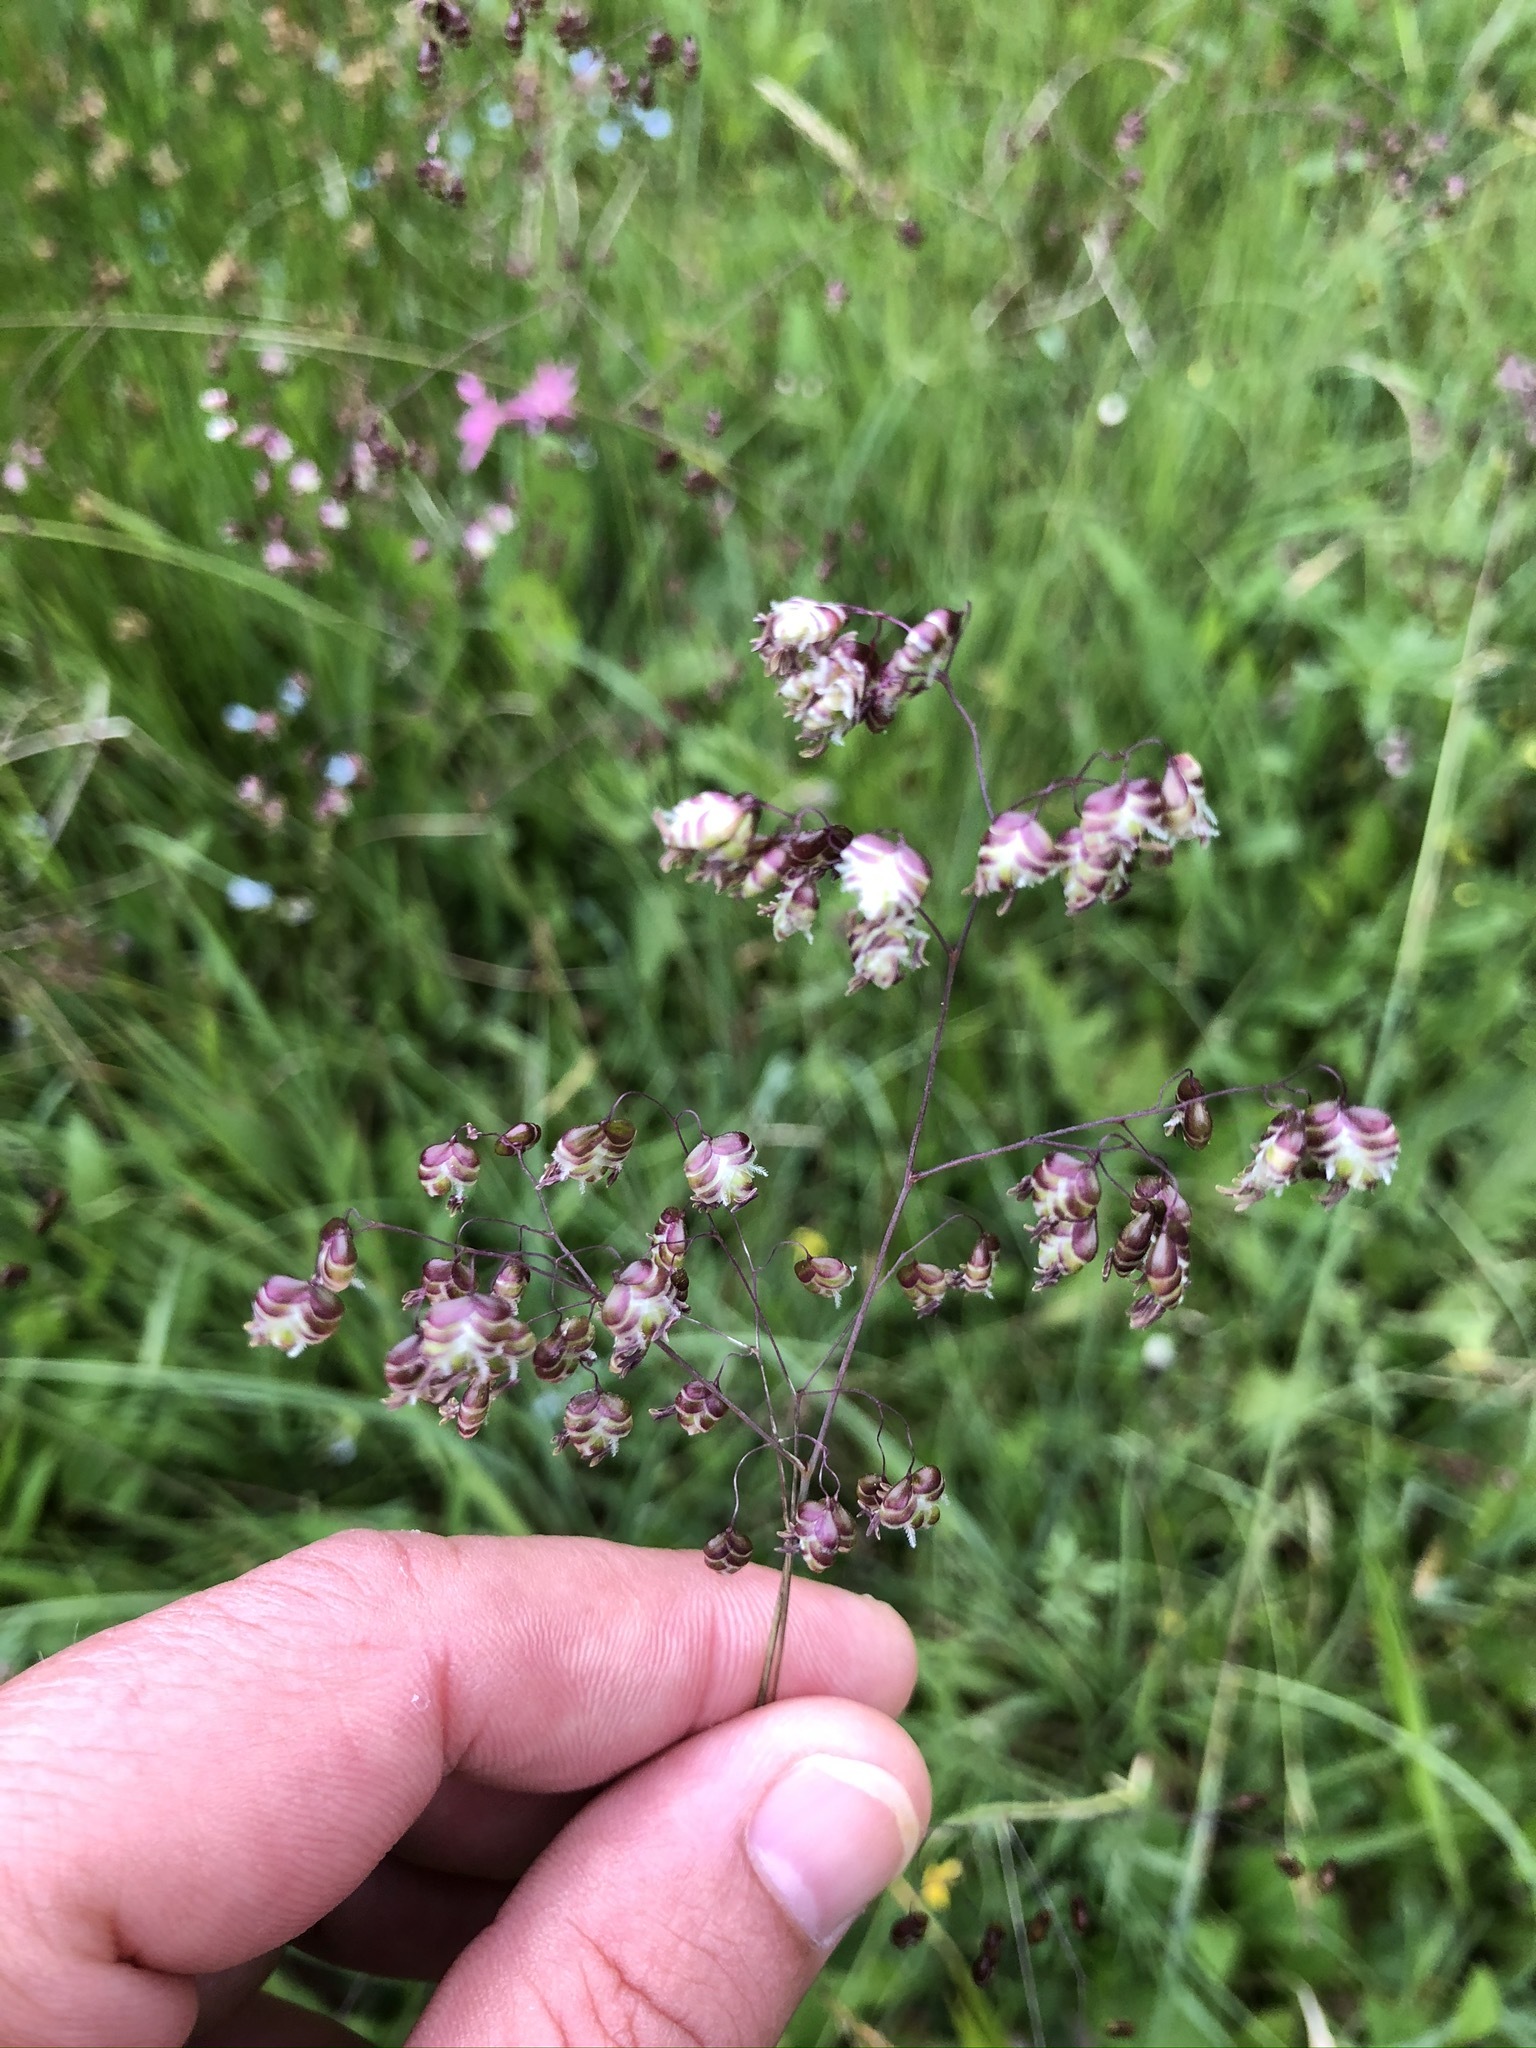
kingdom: Plantae
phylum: Tracheophyta
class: Liliopsida
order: Poales
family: Poaceae
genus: Briza
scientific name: Briza media
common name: Quaking grass
